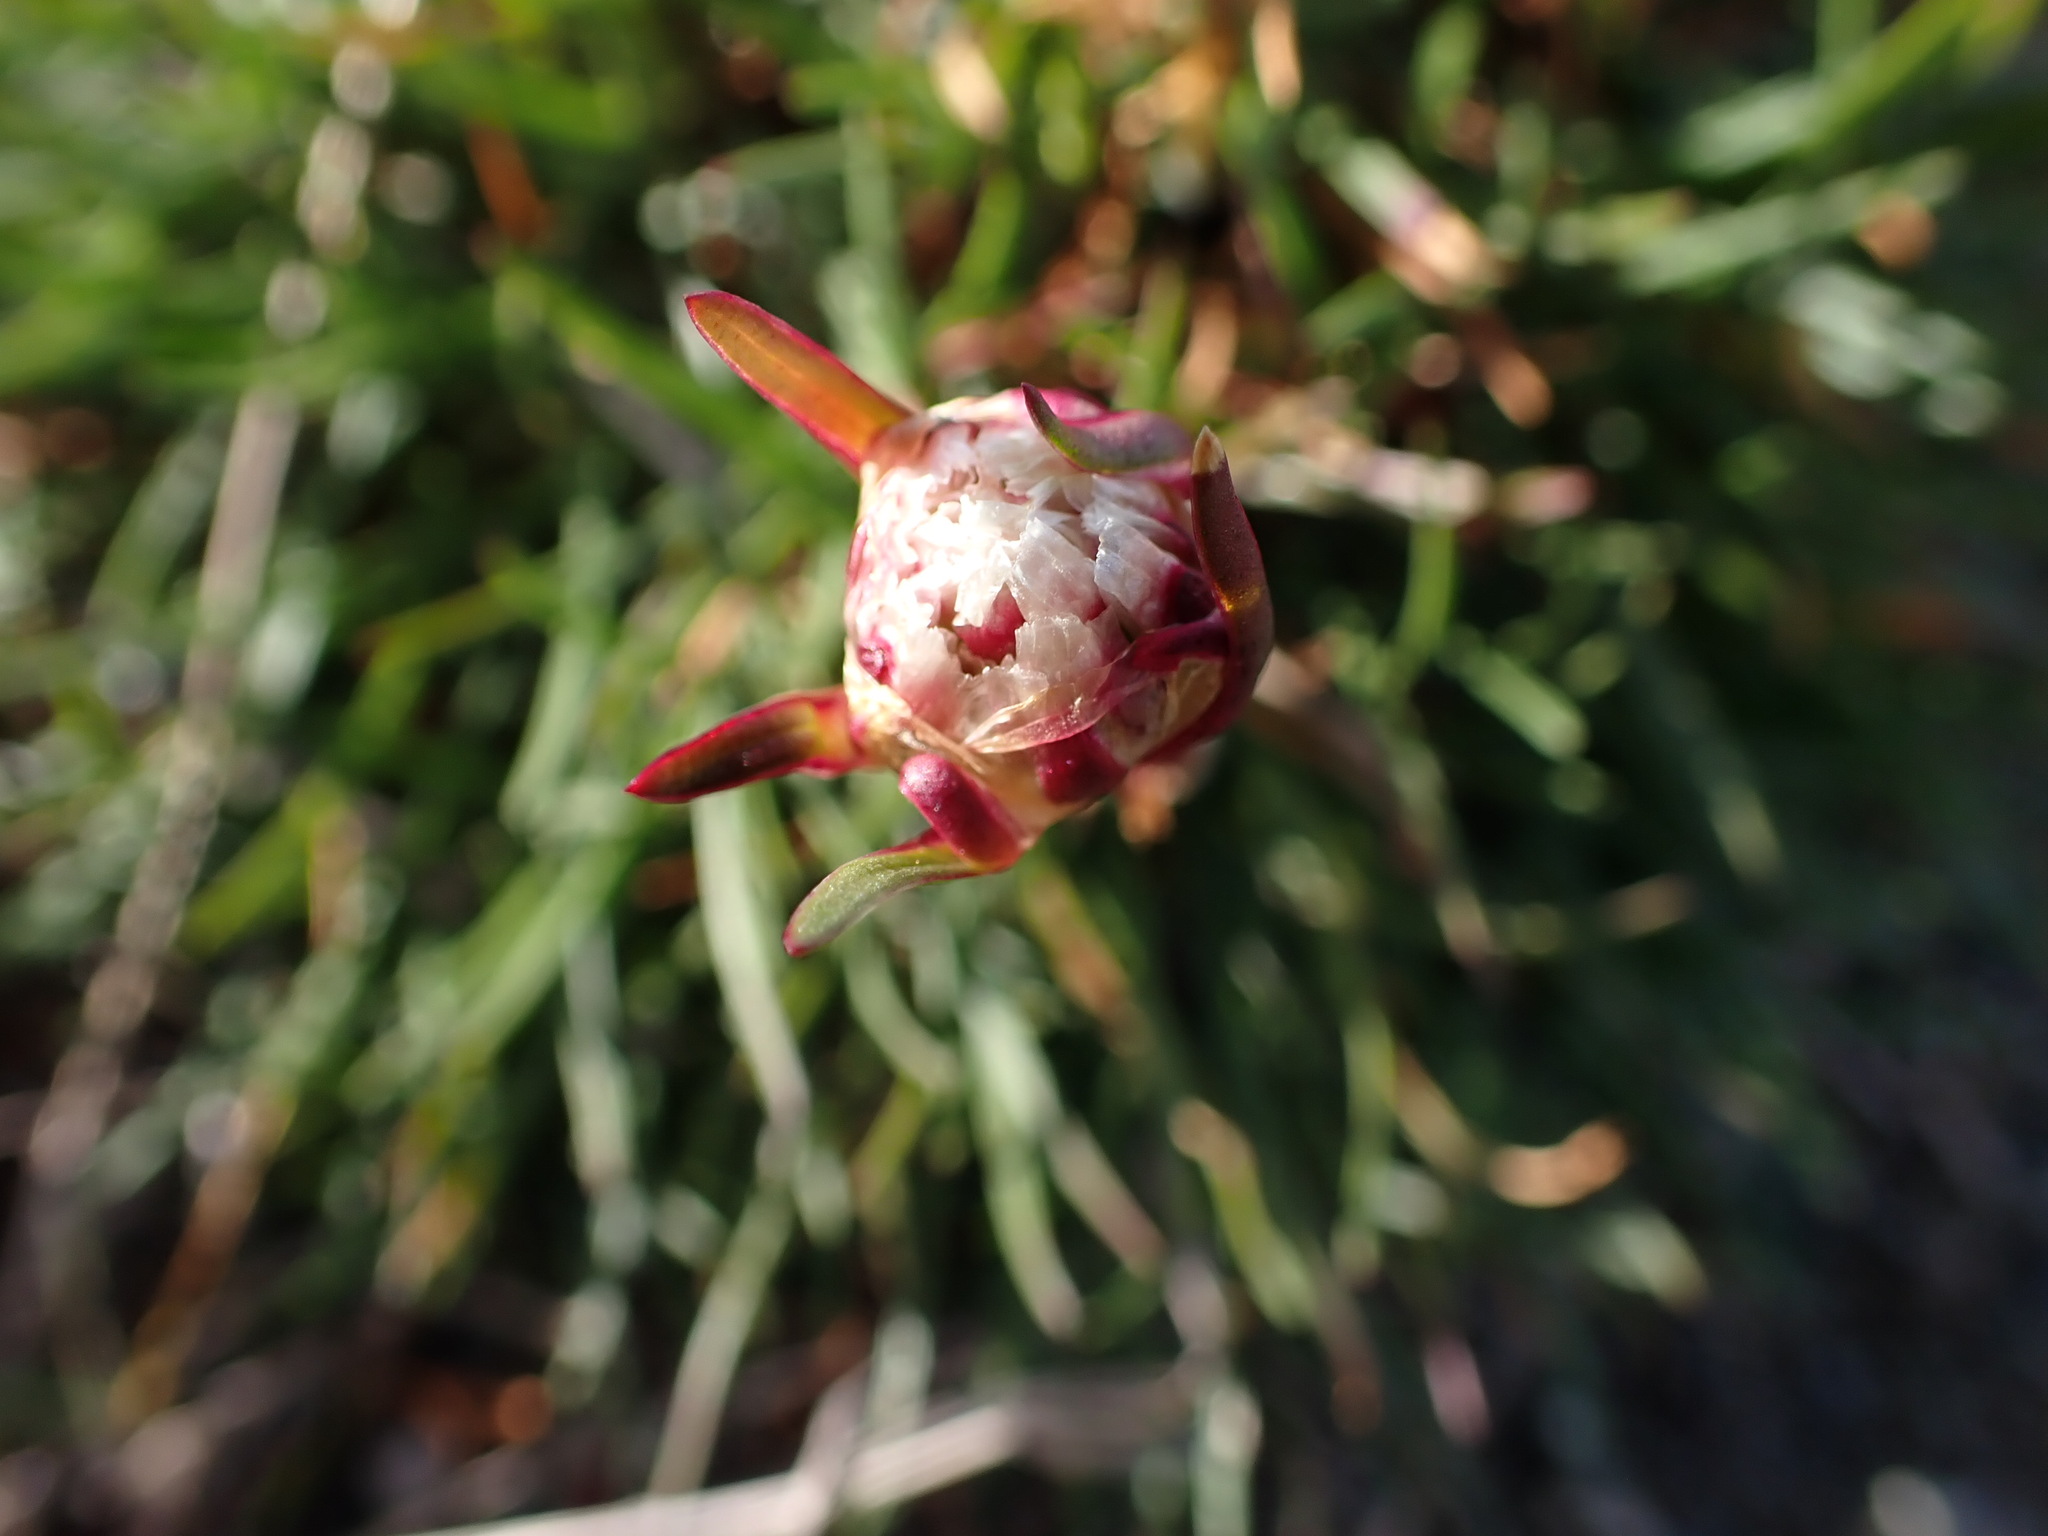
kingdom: Plantae
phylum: Tracheophyta
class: Magnoliopsida
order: Caryophyllales
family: Plumbaginaceae
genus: Armeria
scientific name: Armeria maritima
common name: Thrift
